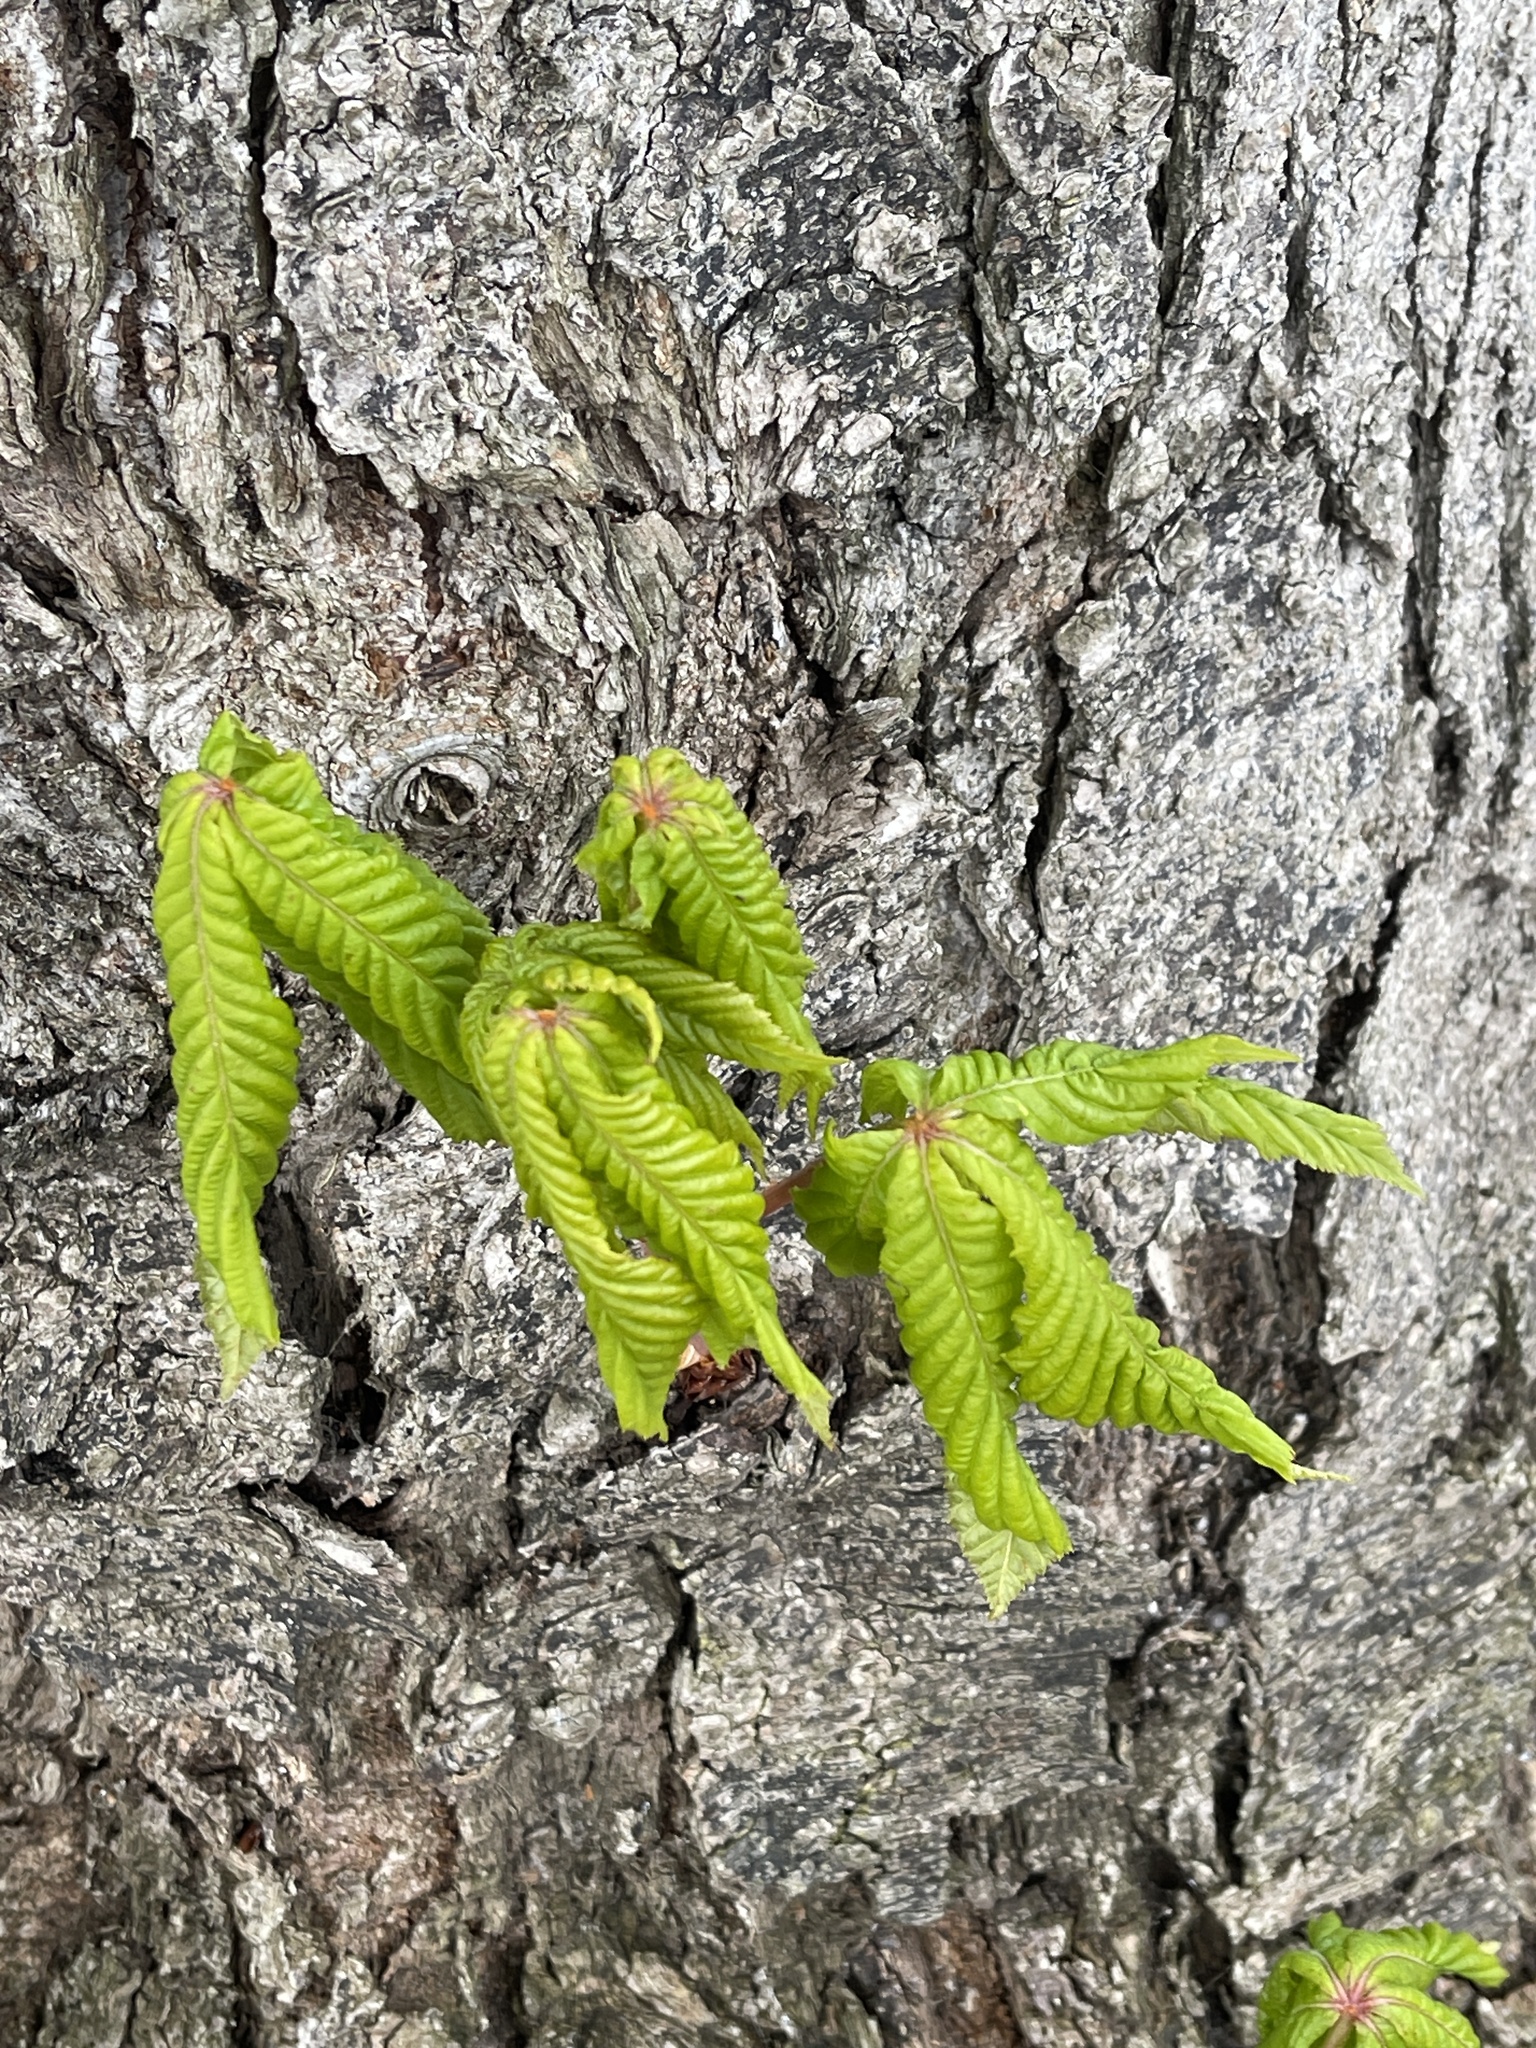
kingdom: Plantae
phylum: Tracheophyta
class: Magnoliopsida
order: Sapindales
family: Sapindaceae
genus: Aesculus
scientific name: Aesculus hippocastanum
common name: Horse-chestnut
